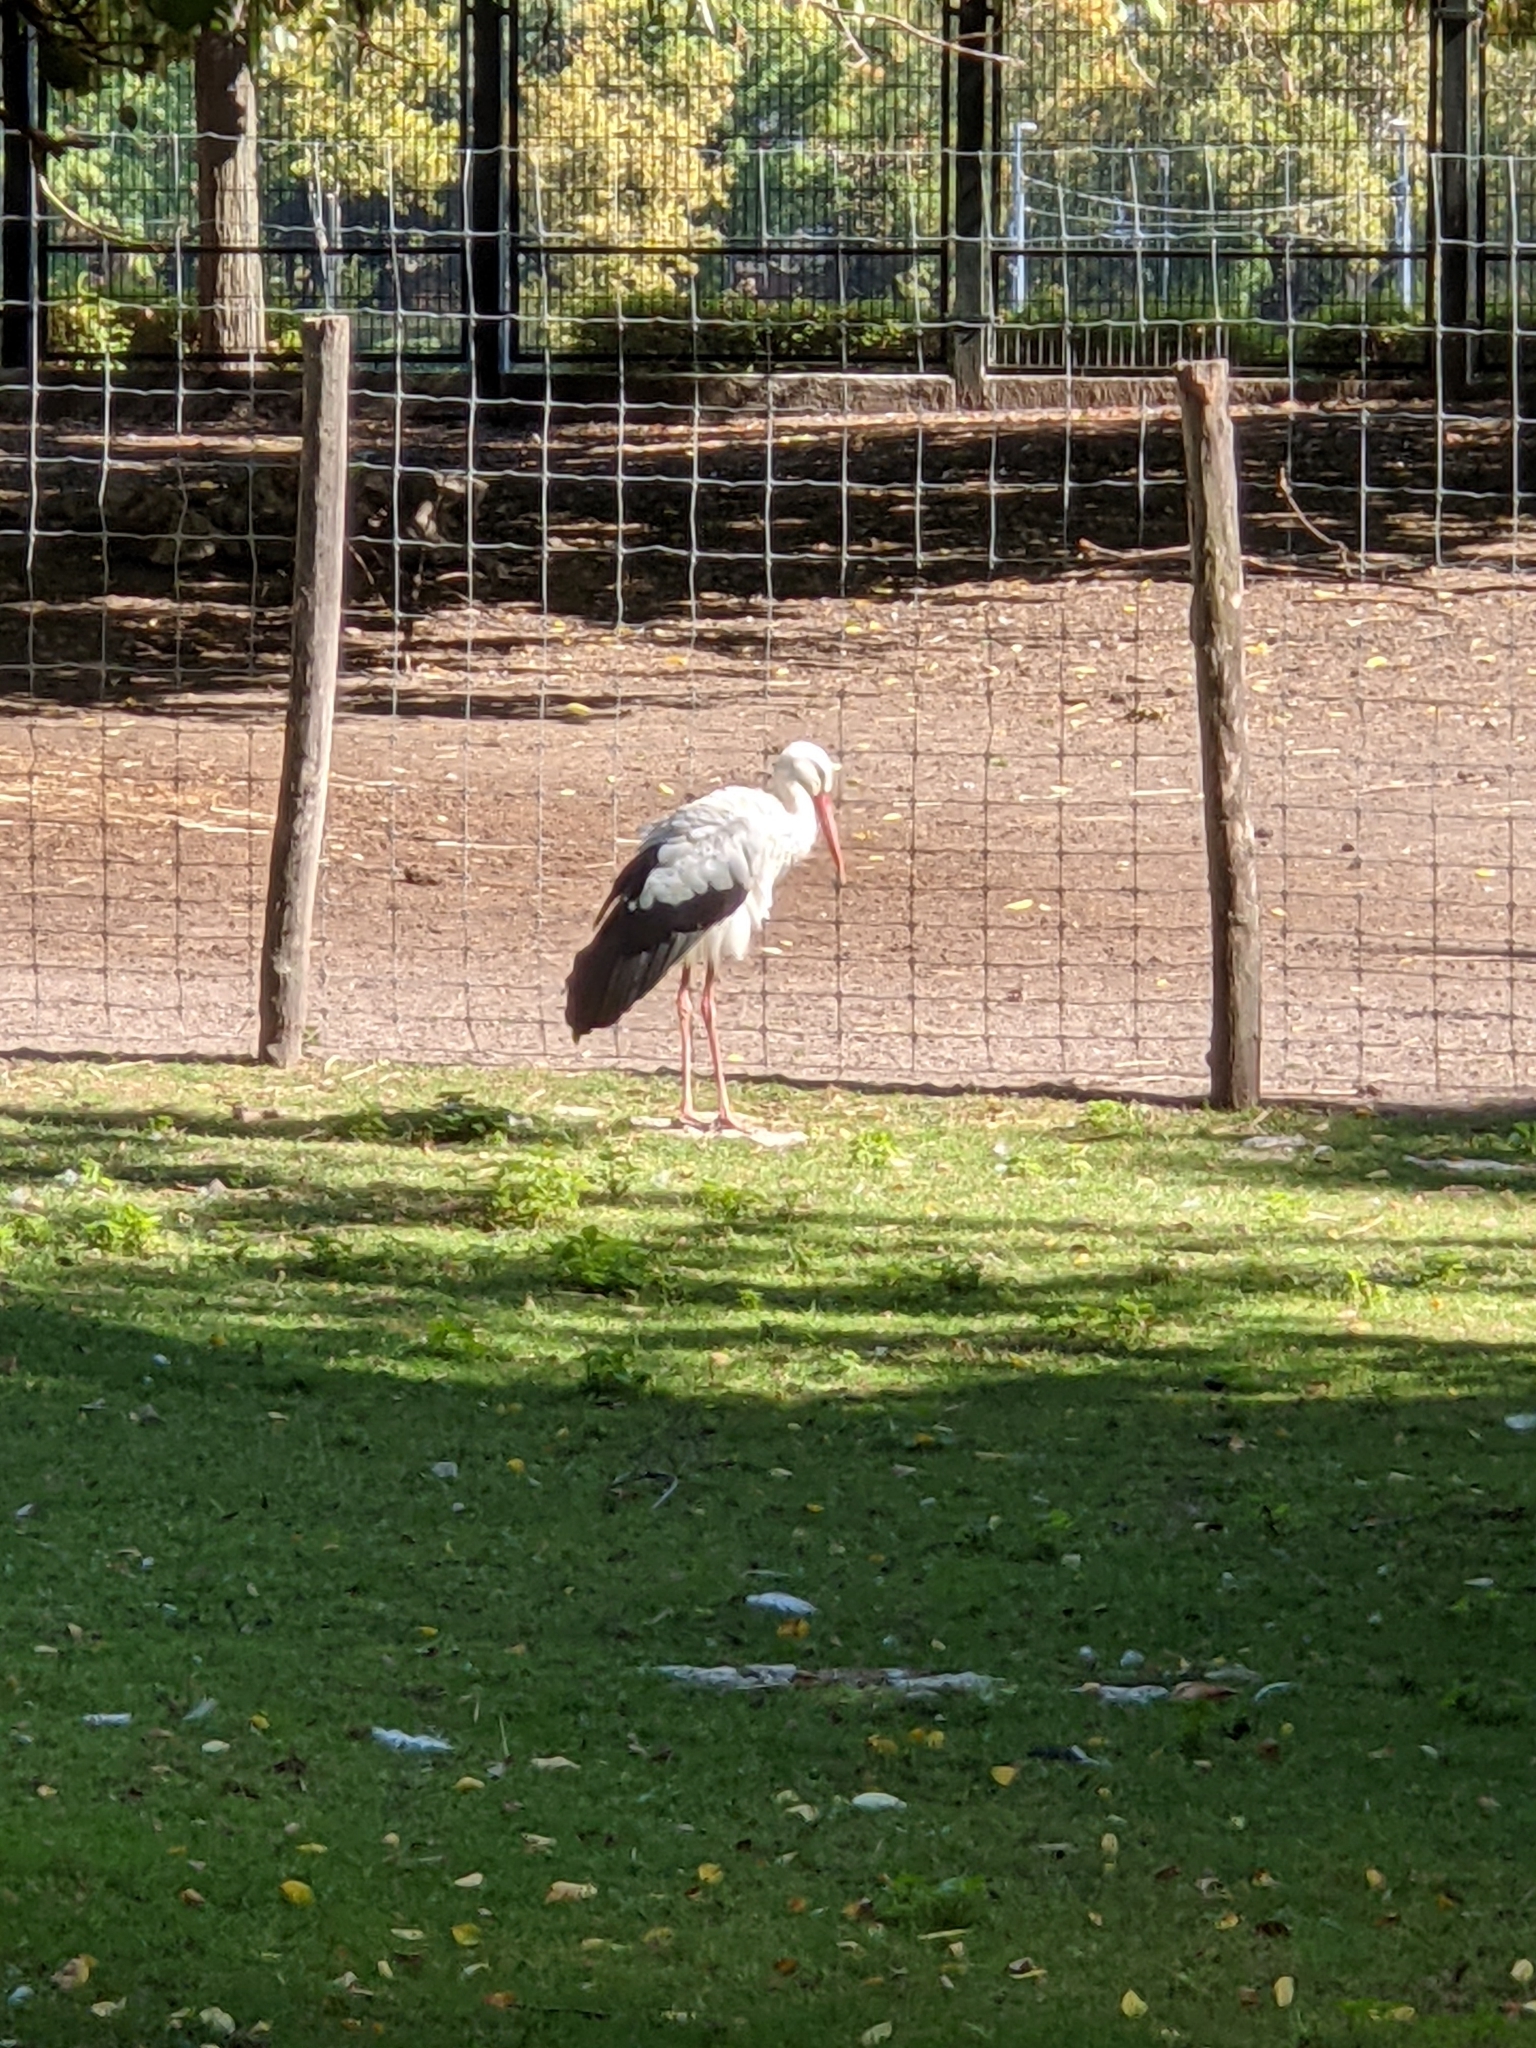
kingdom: Animalia
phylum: Chordata
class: Aves
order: Ciconiiformes
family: Ciconiidae
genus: Ciconia
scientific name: Ciconia ciconia
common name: White stork
